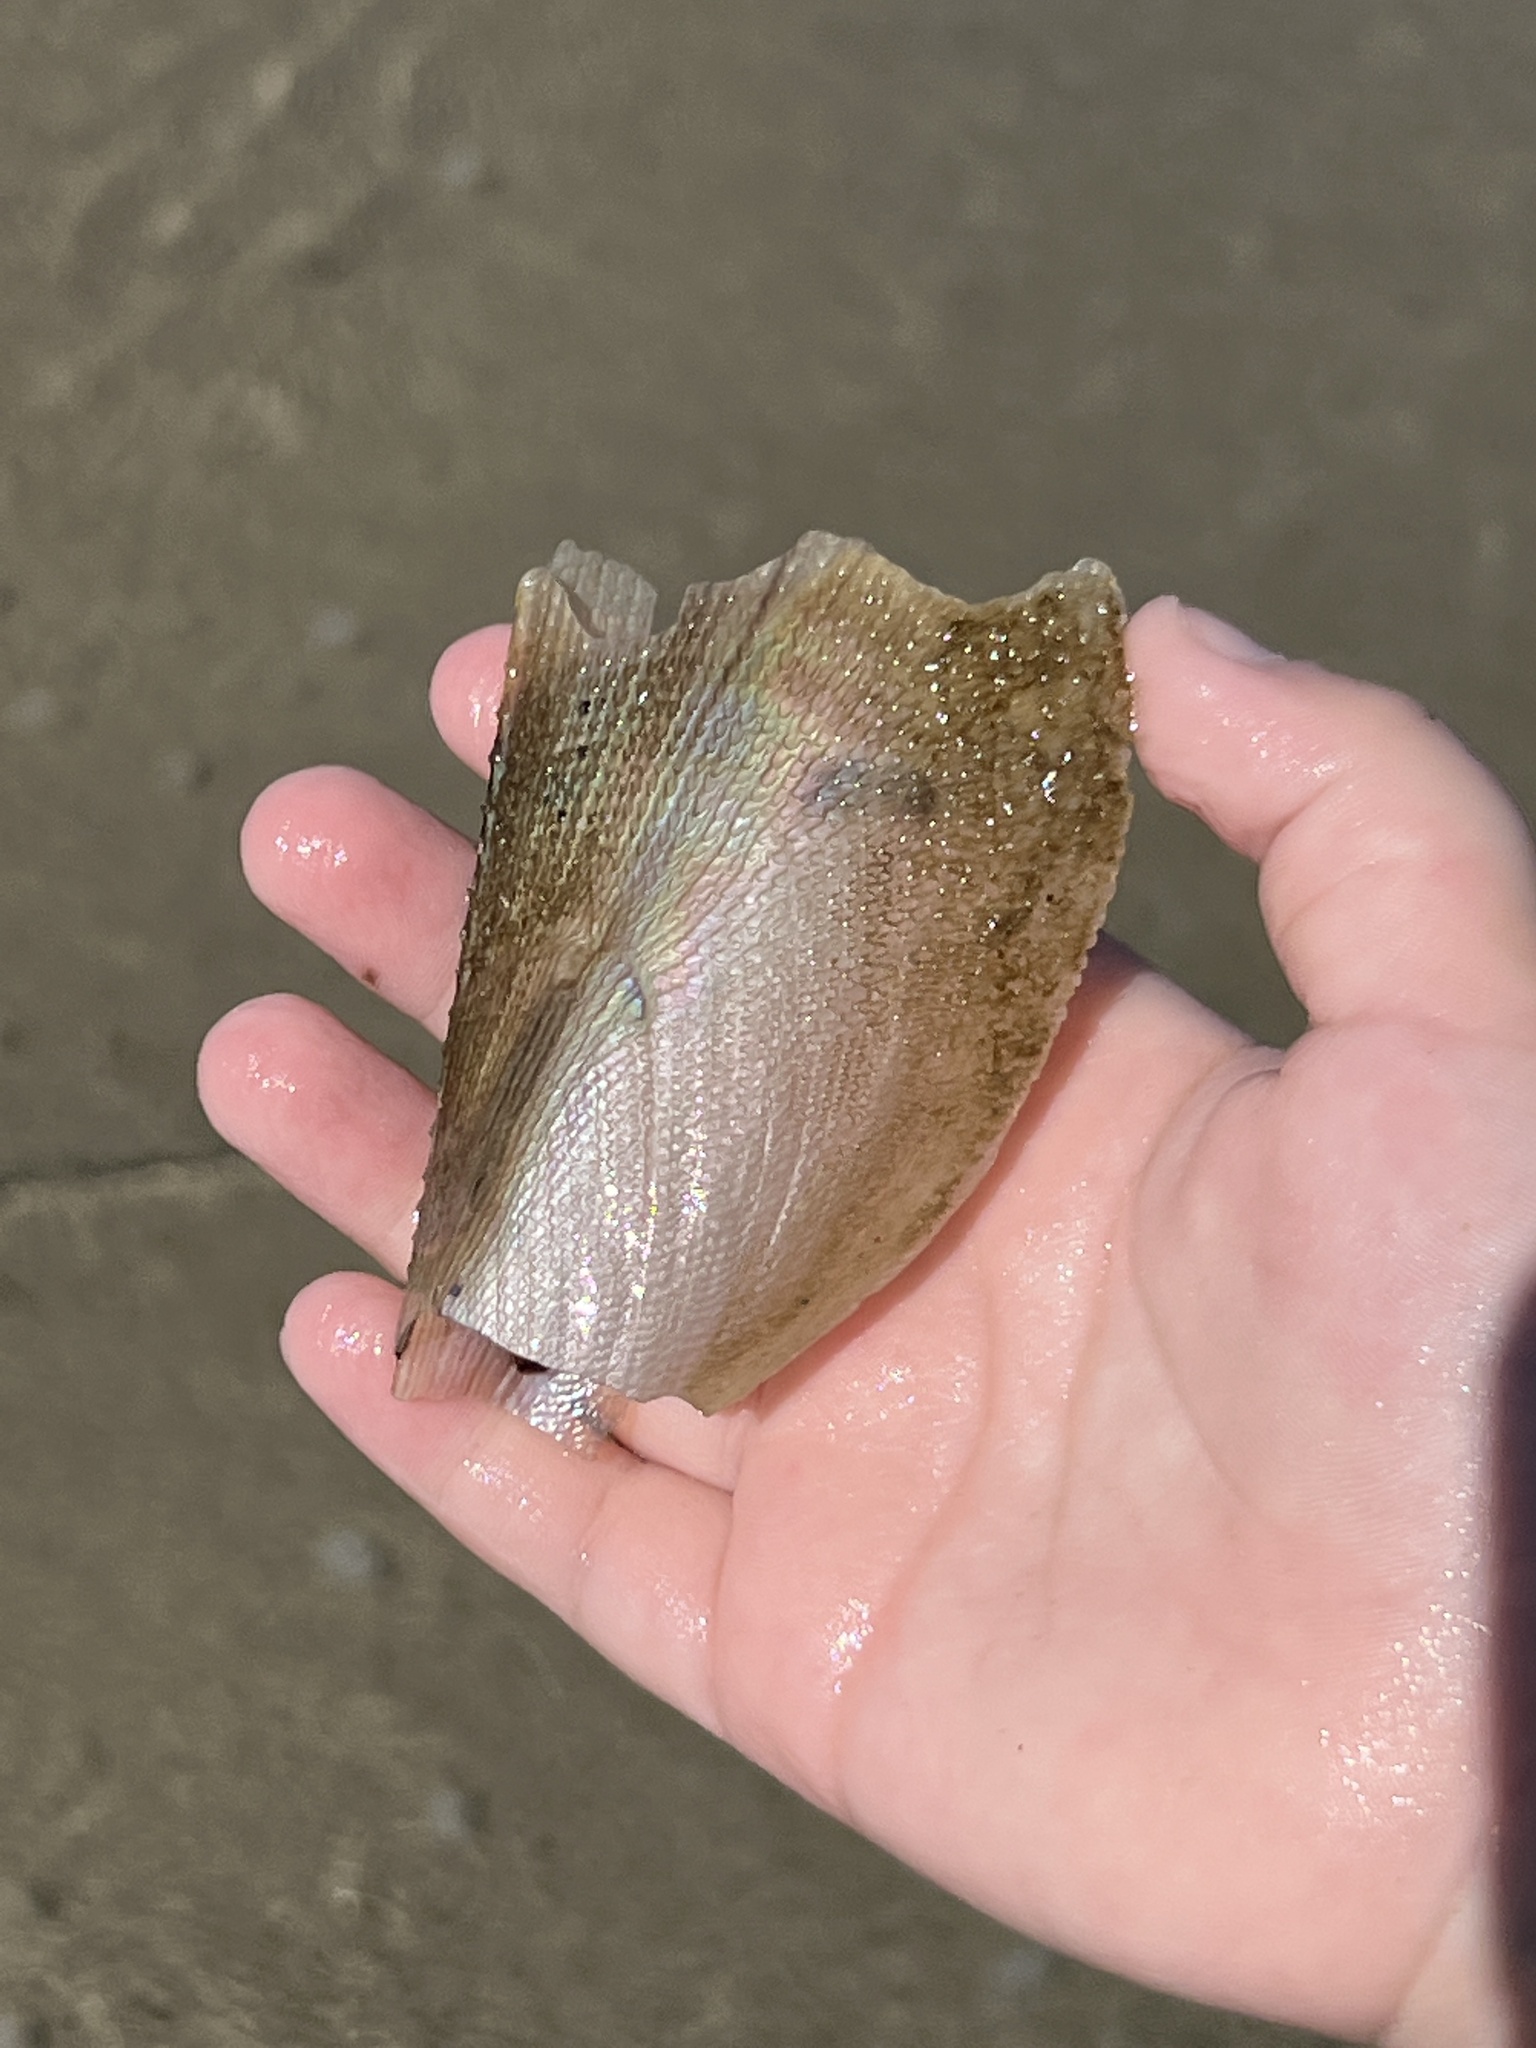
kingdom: Animalia
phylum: Mollusca
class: Bivalvia
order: Ostreida
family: Pinnidae
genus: Atrina
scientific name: Atrina serrata
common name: Saw-toothed penshell
